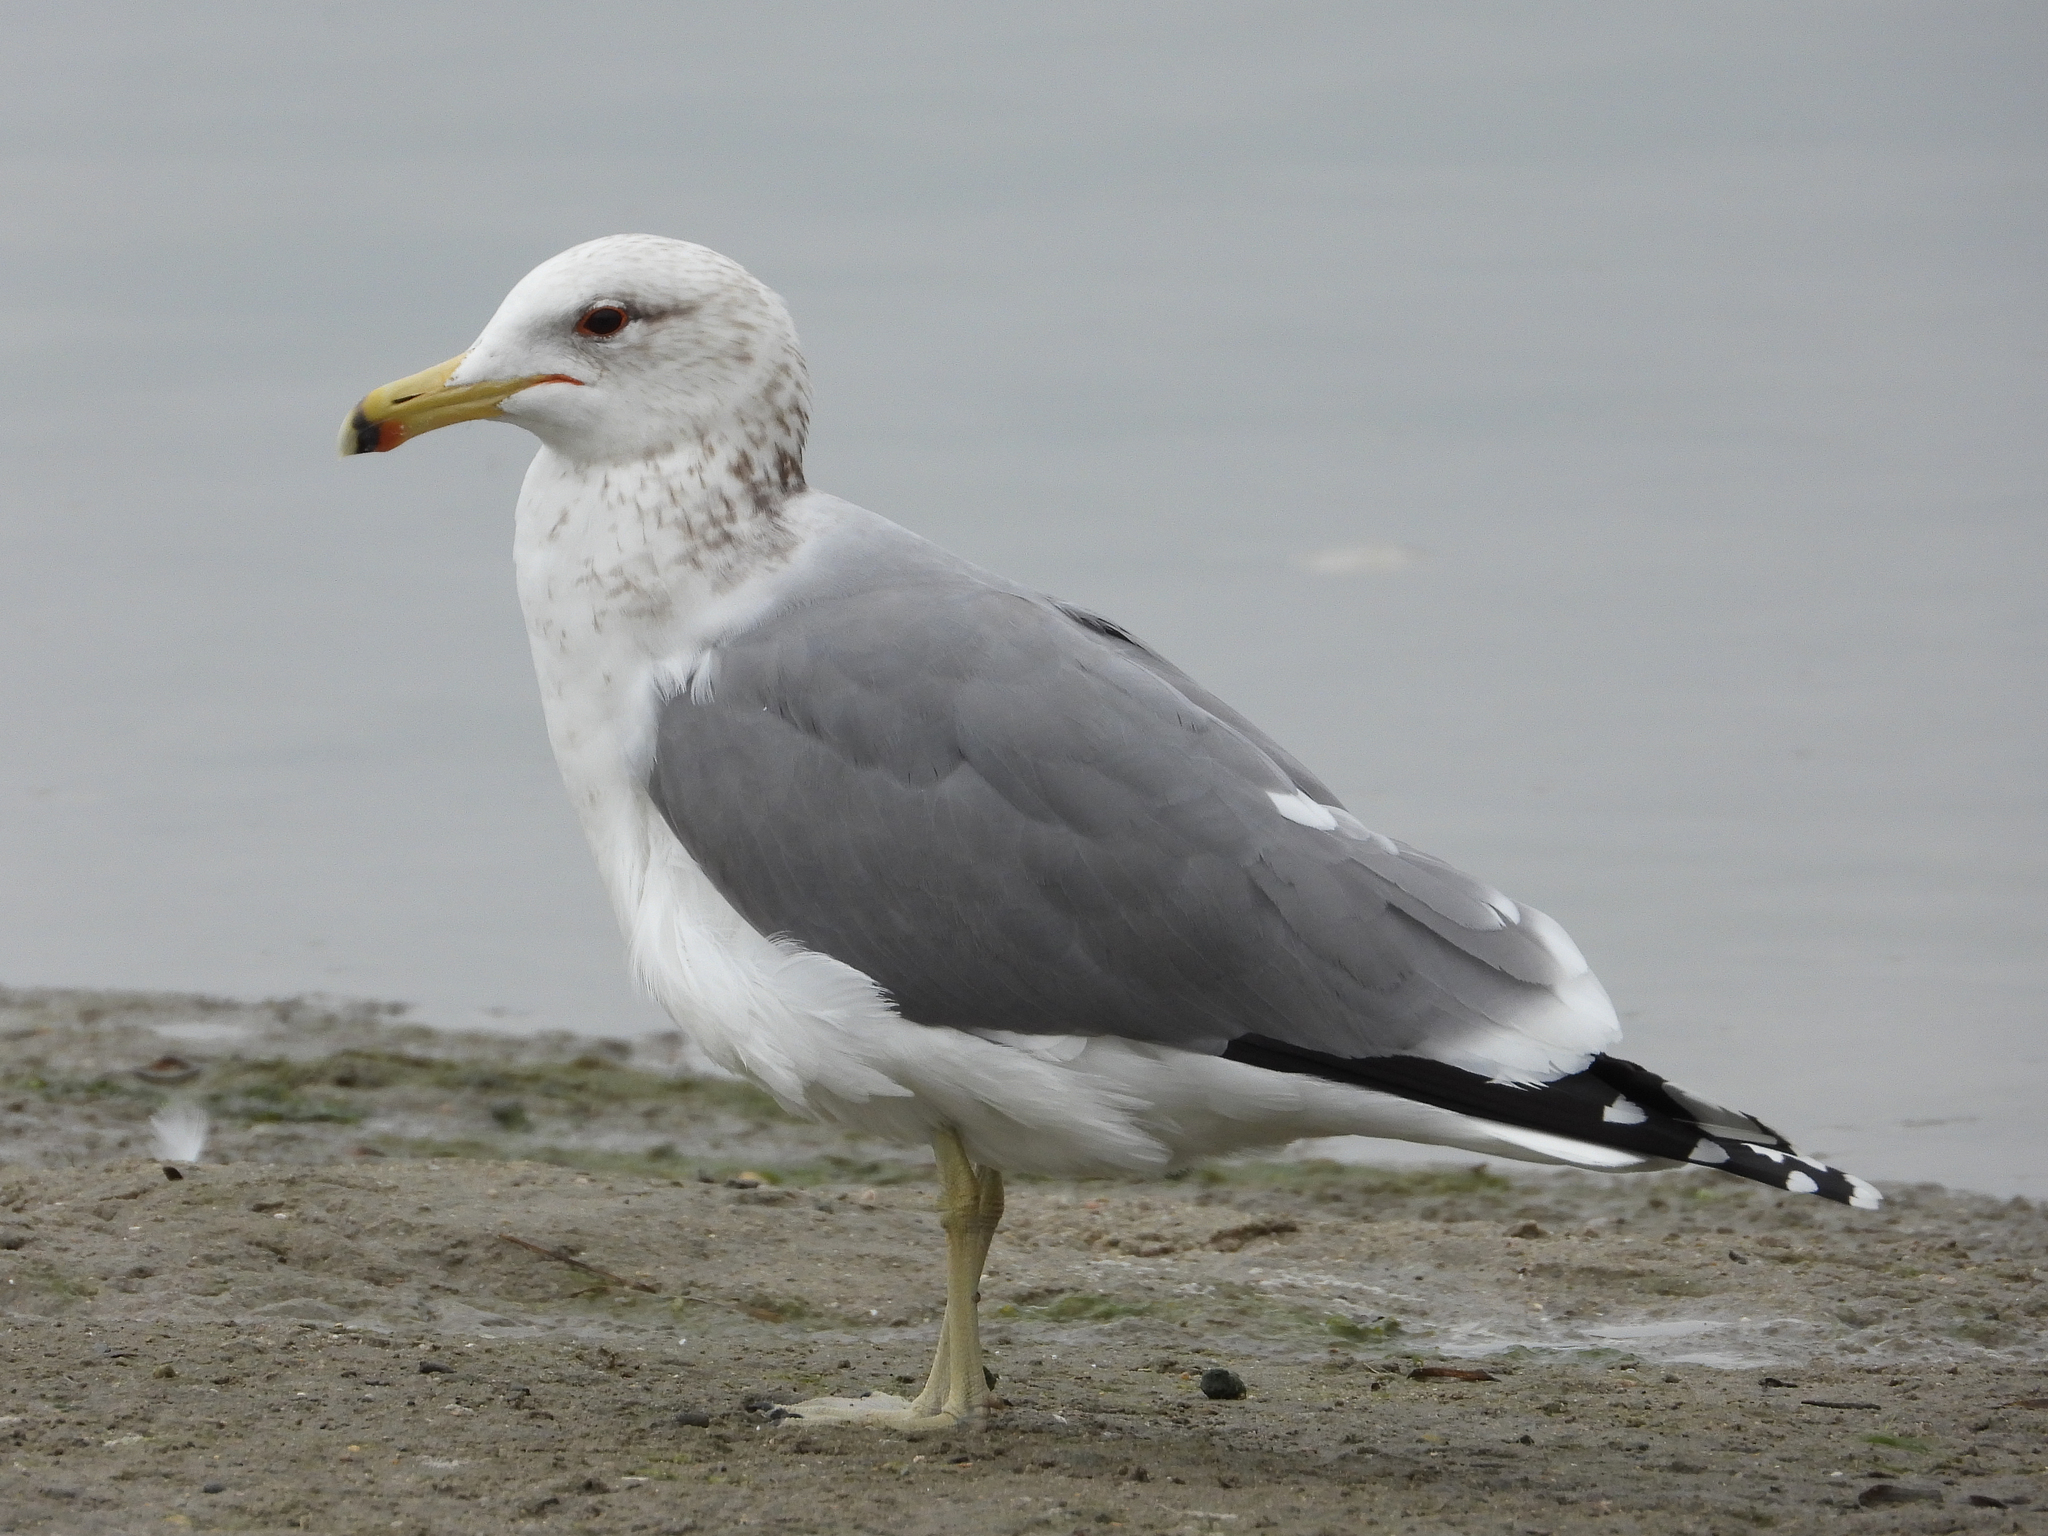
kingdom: Animalia
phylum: Chordata
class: Aves
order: Charadriiformes
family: Laridae
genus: Larus
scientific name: Larus californicus
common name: California gull
